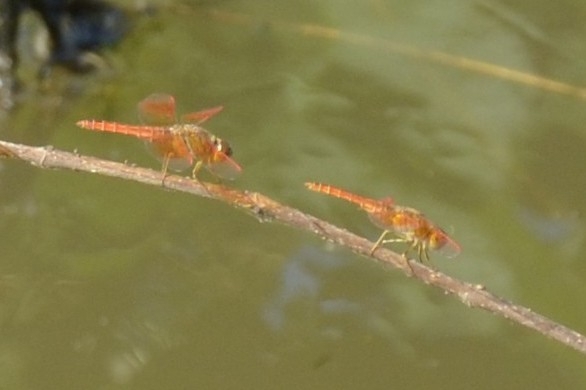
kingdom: Animalia
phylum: Arthropoda
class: Insecta
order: Odonata
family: Libellulidae
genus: Brachythemis
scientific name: Brachythemis contaminata
